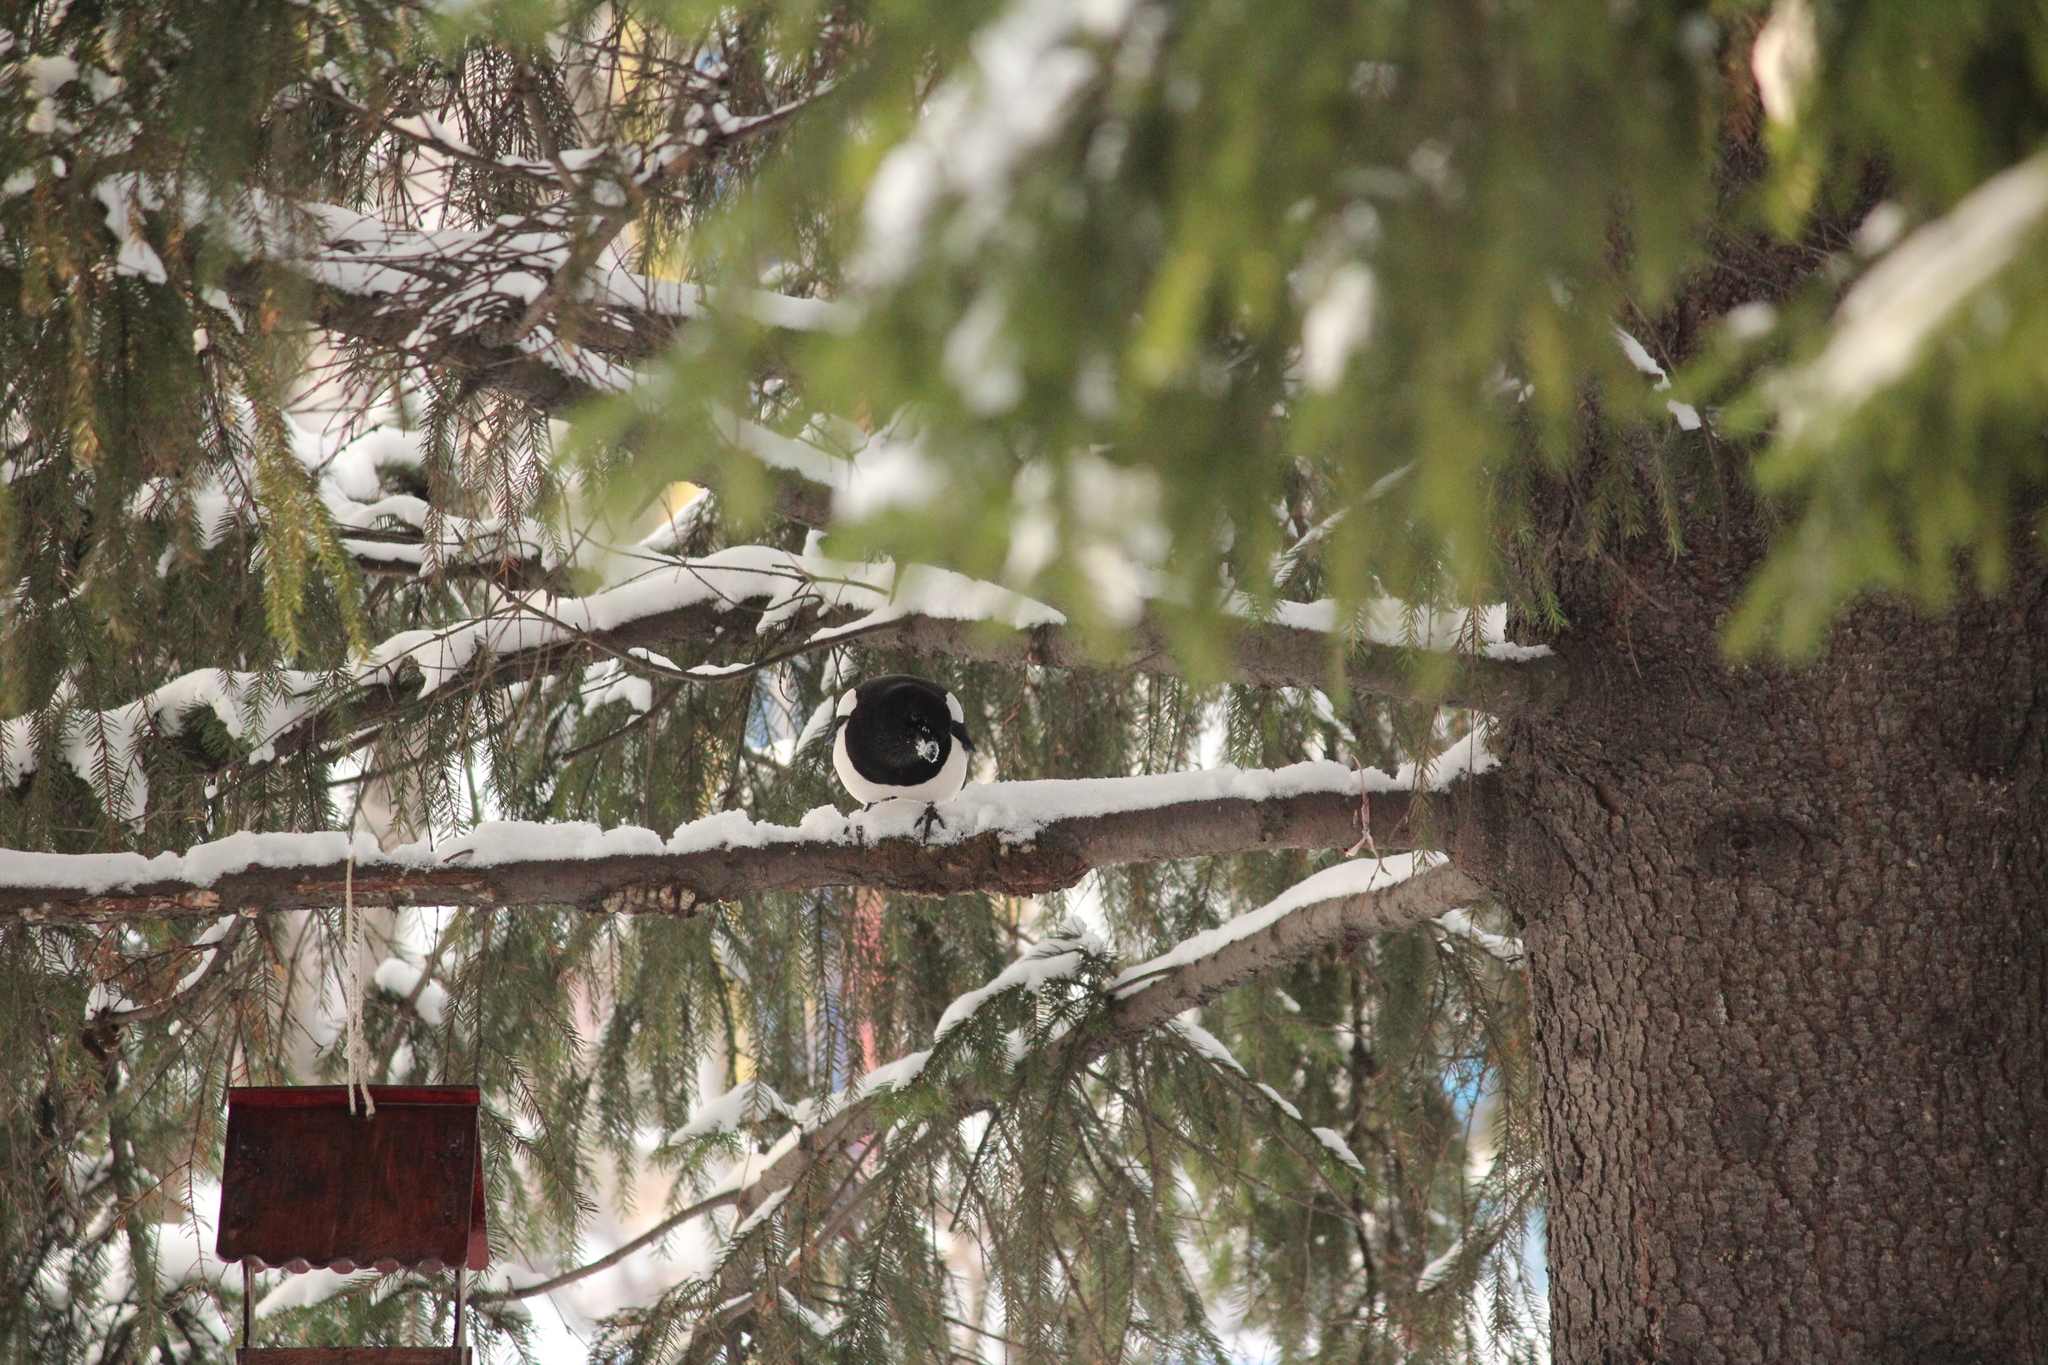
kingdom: Animalia
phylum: Chordata
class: Aves
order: Passeriformes
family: Corvidae
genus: Pica
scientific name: Pica pica
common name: Eurasian magpie
